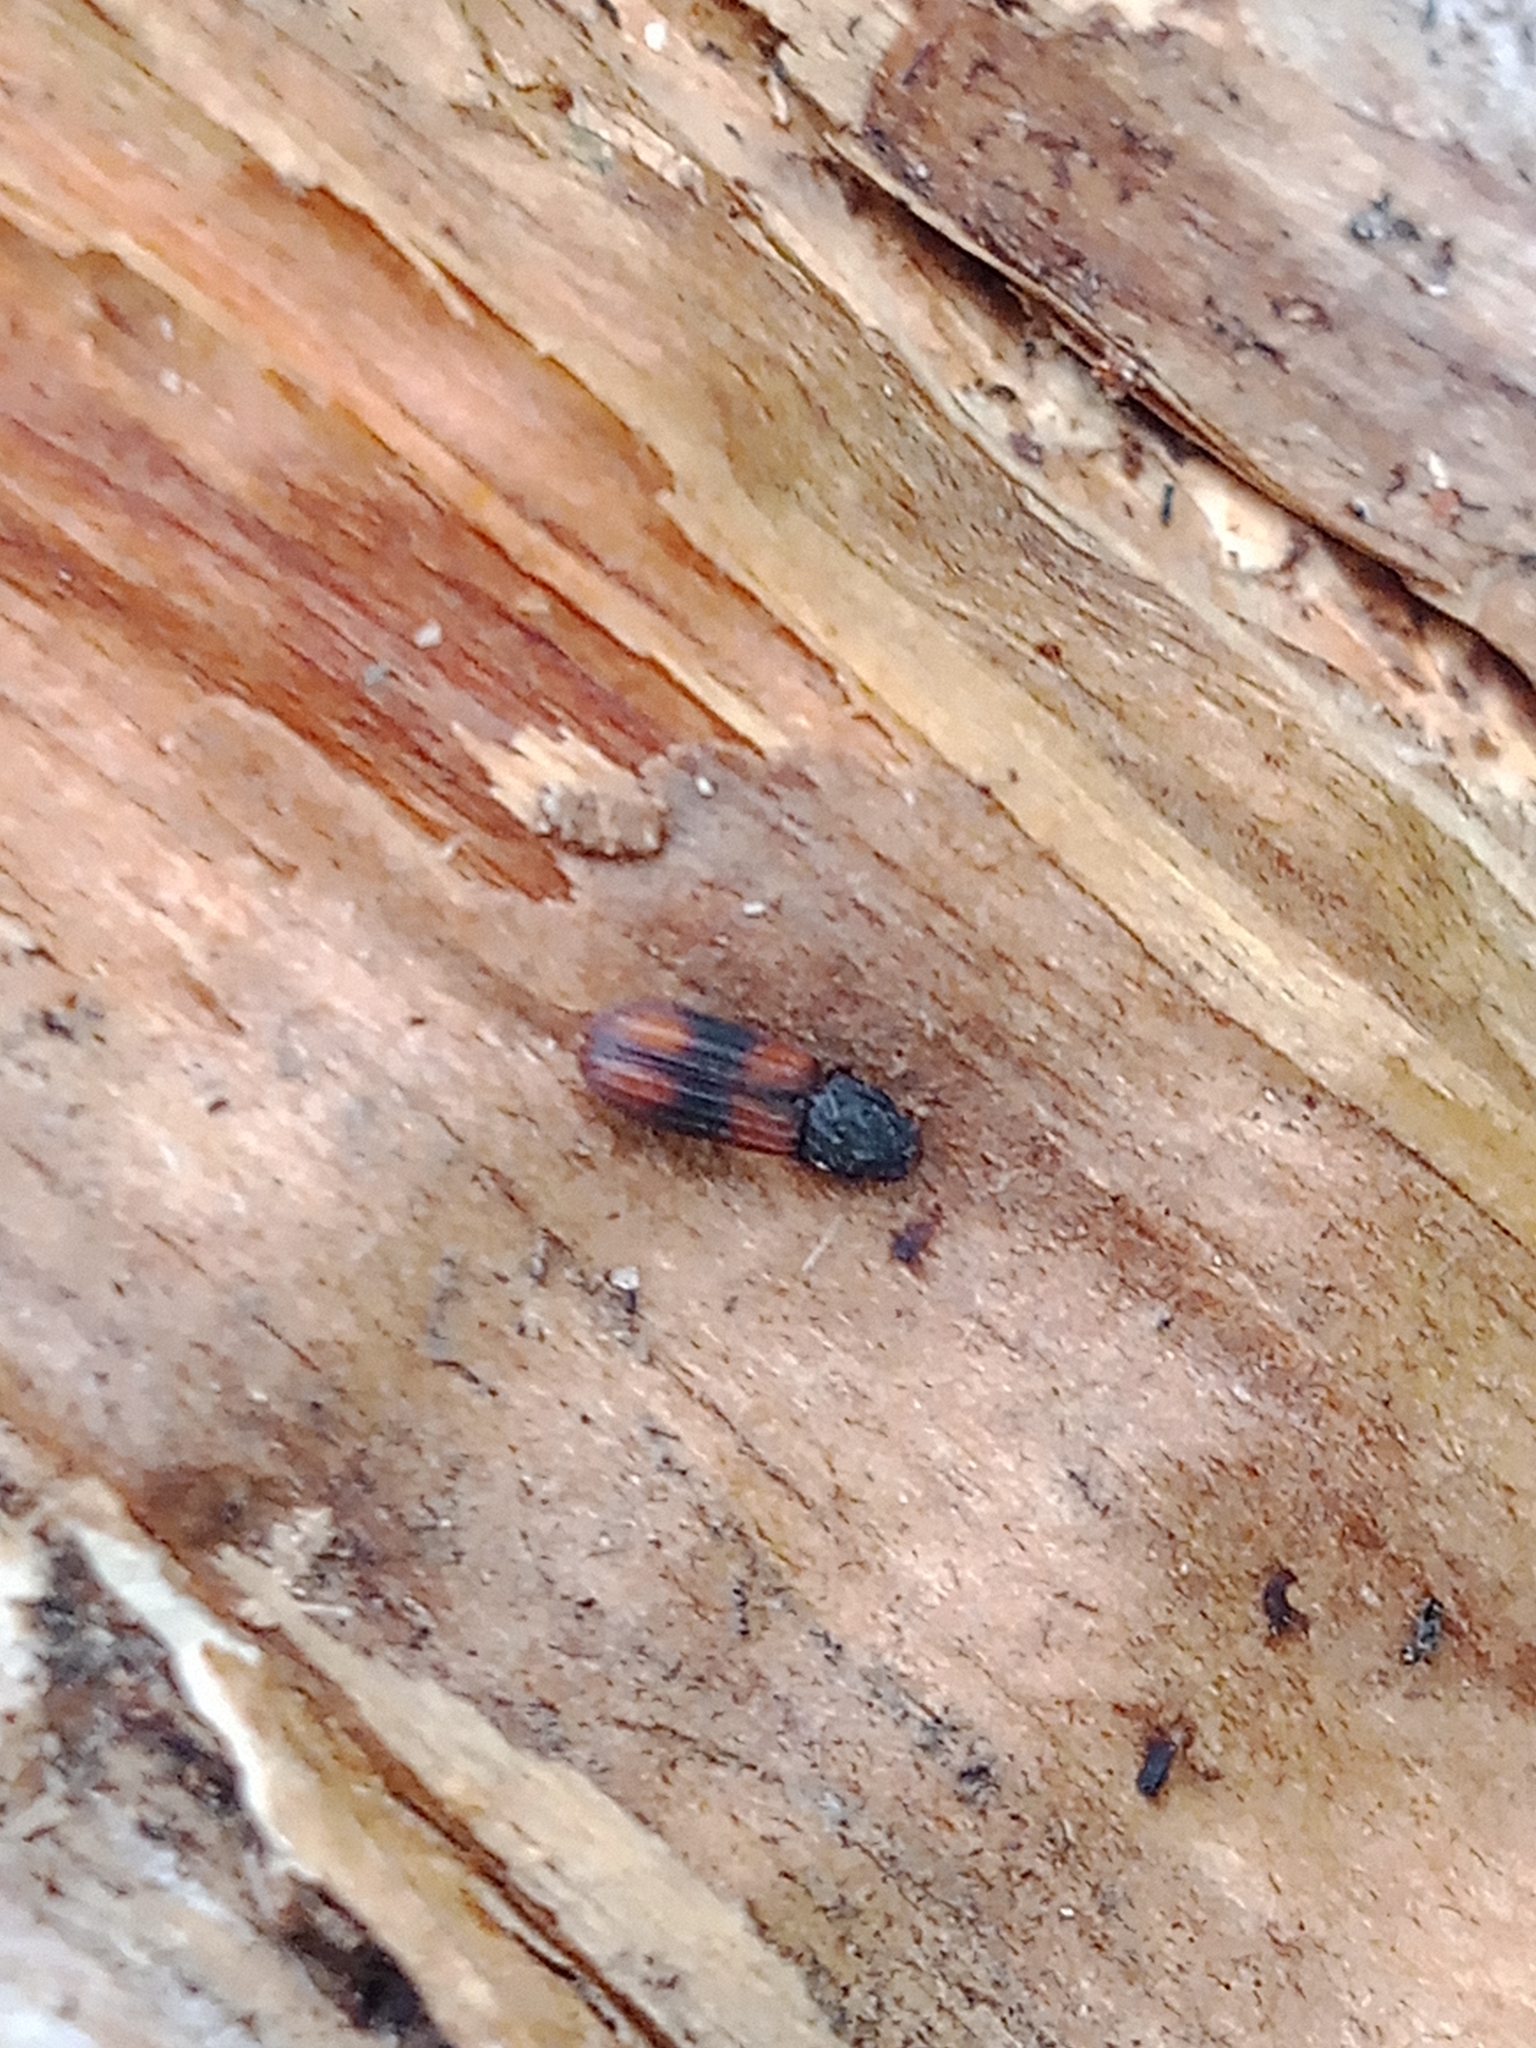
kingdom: Animalia
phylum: Arthropoda
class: Insecta
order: Coleoptera
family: Zopheridae
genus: Bitoma
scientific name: Bitoma crenata
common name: Bark beetle
